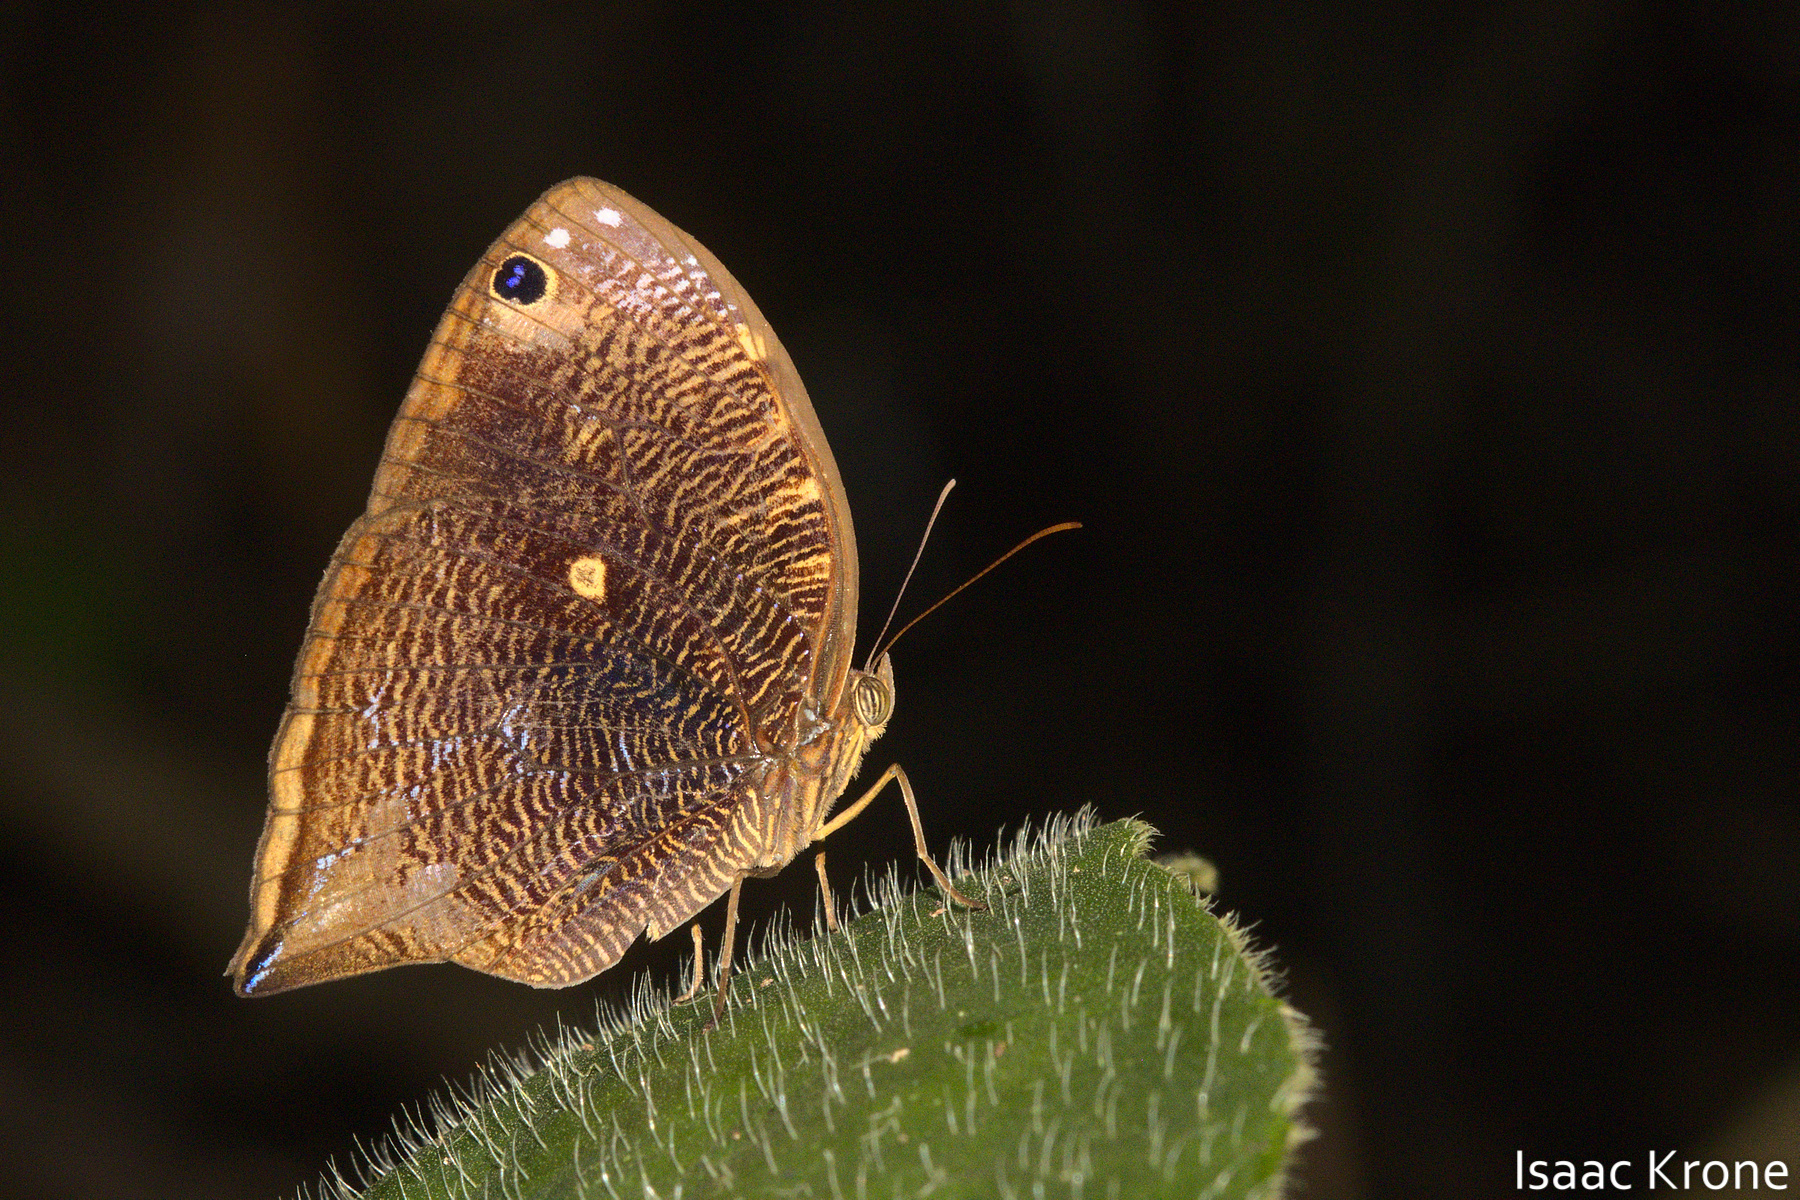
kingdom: Animalia
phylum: Arthropoda
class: Insecta
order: Lepidoptera
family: Nymphalidae
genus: Bia
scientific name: Bia actorion
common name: Uncertain owlet
